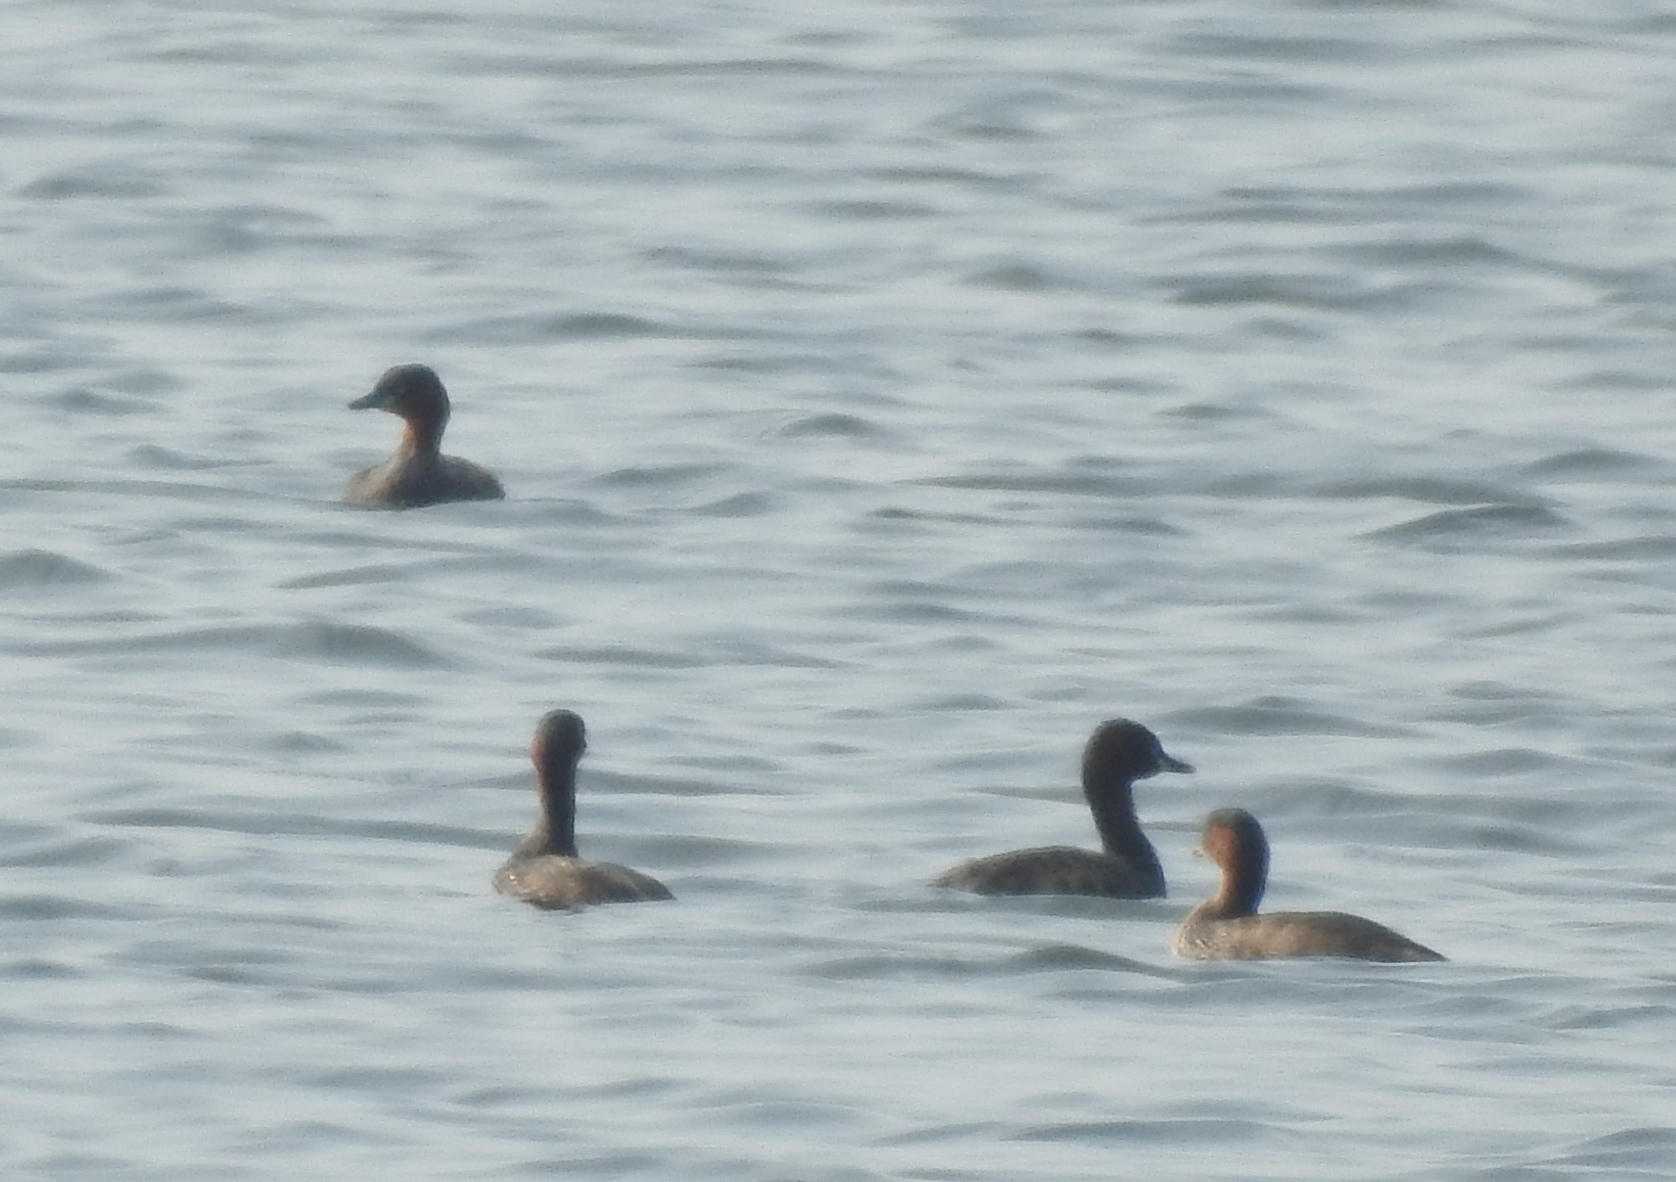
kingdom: Animalia
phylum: Chordata
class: Aves
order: Podicipediformes
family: Podicipedidae
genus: Tachybaptus
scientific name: Tachybaptus ruficollis
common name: Little grebe
